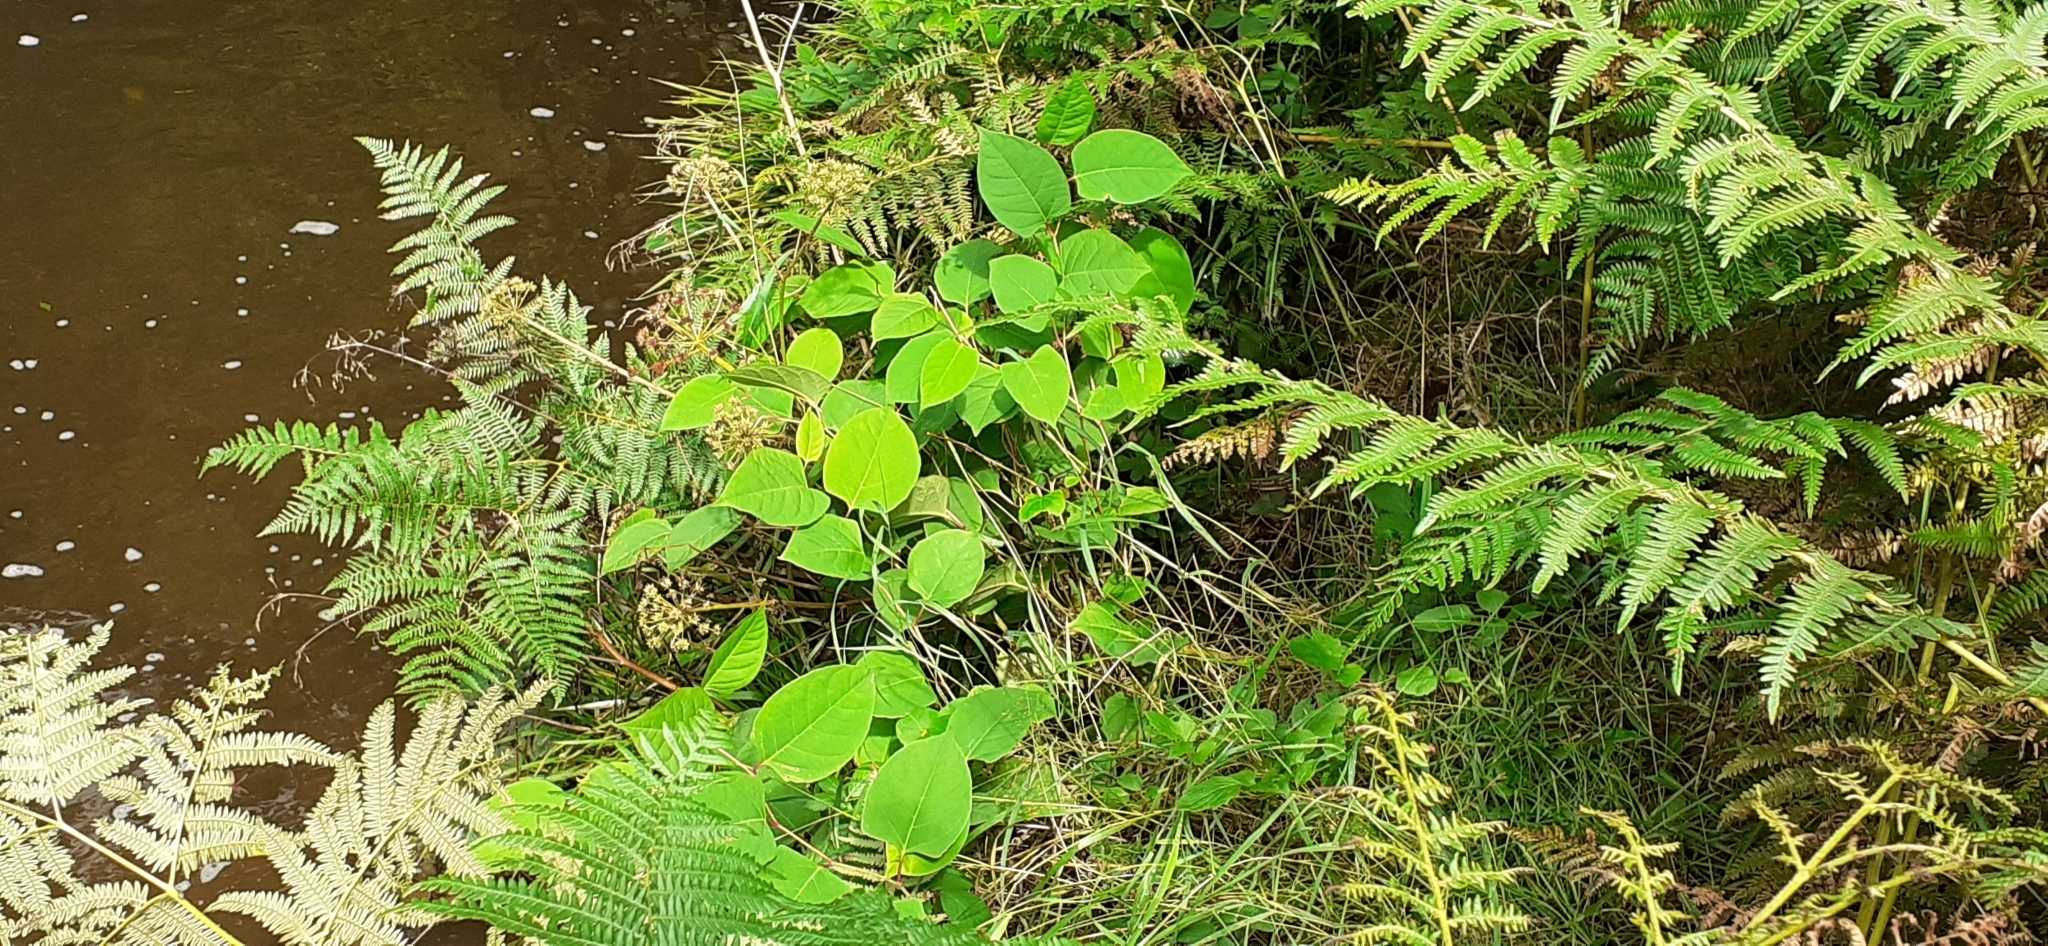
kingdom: Plantae
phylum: Tracheophyta
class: Magnoliopsida
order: Caryophyllales
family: Polygonaceae
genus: Reynoutria
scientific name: Reynoutria japonica
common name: Japanese knotweed
